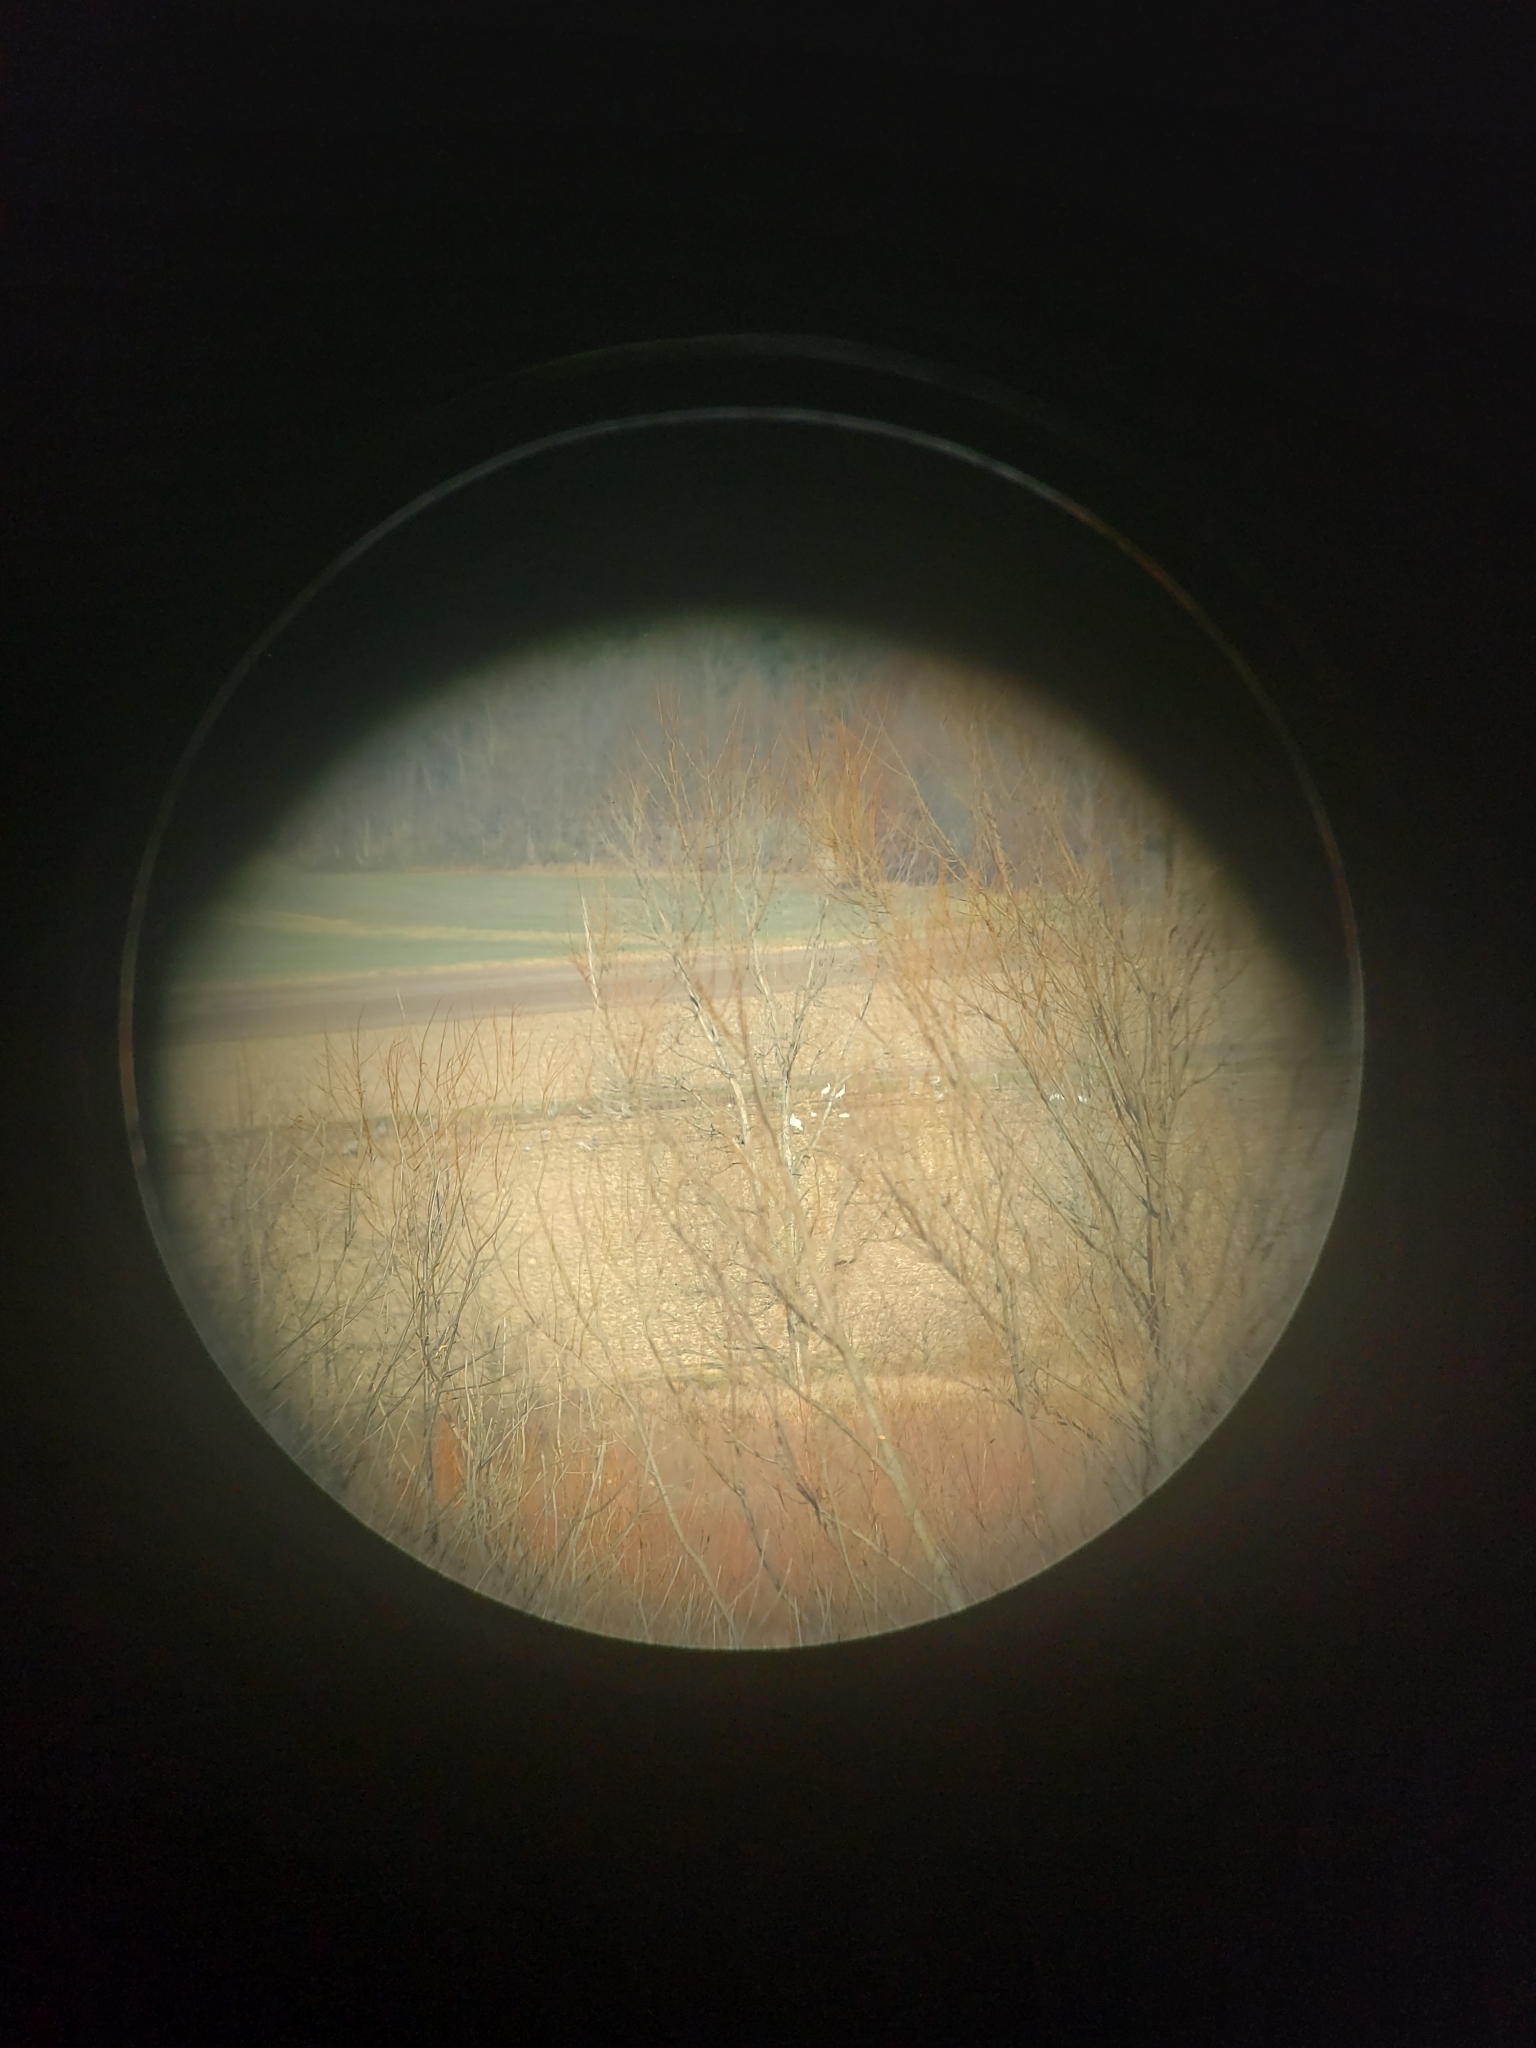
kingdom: Animalia
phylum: Chordata
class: Aves
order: Gruiformes
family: Gruidae
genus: Grus
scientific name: Grus americana
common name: Whooping crane
